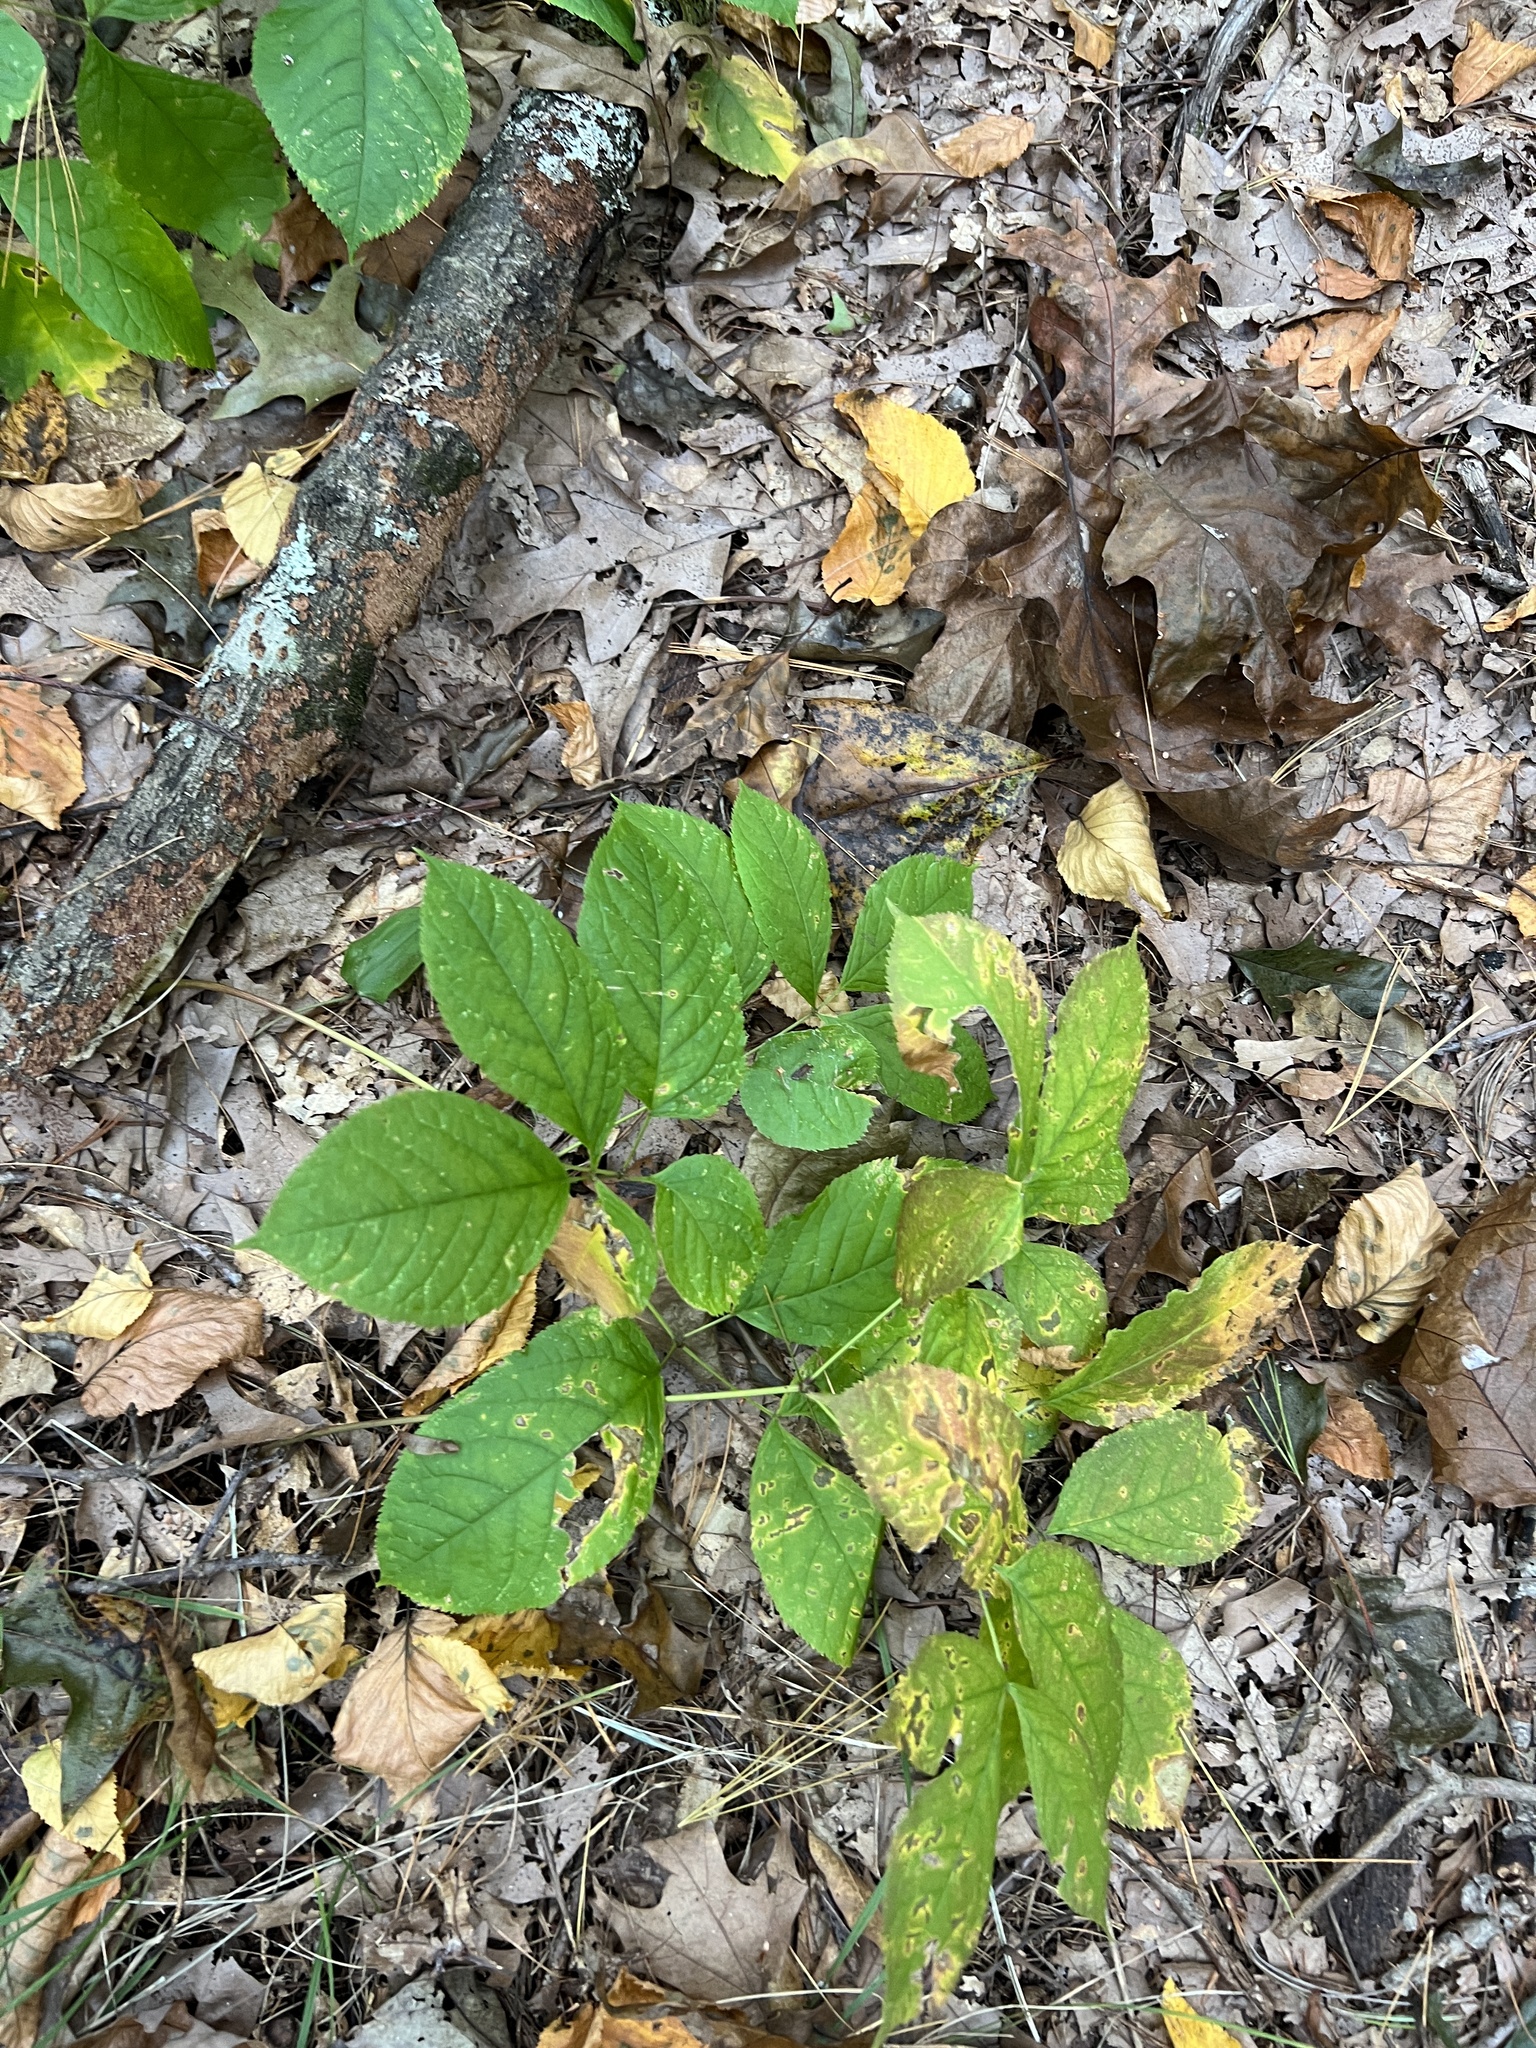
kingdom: Plantae
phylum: Tracheophyta
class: Magnoliopsida
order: Apiales
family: Araliaceae
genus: Aralia
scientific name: Aralia nudicaulis
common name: Wild sarsaparilla
